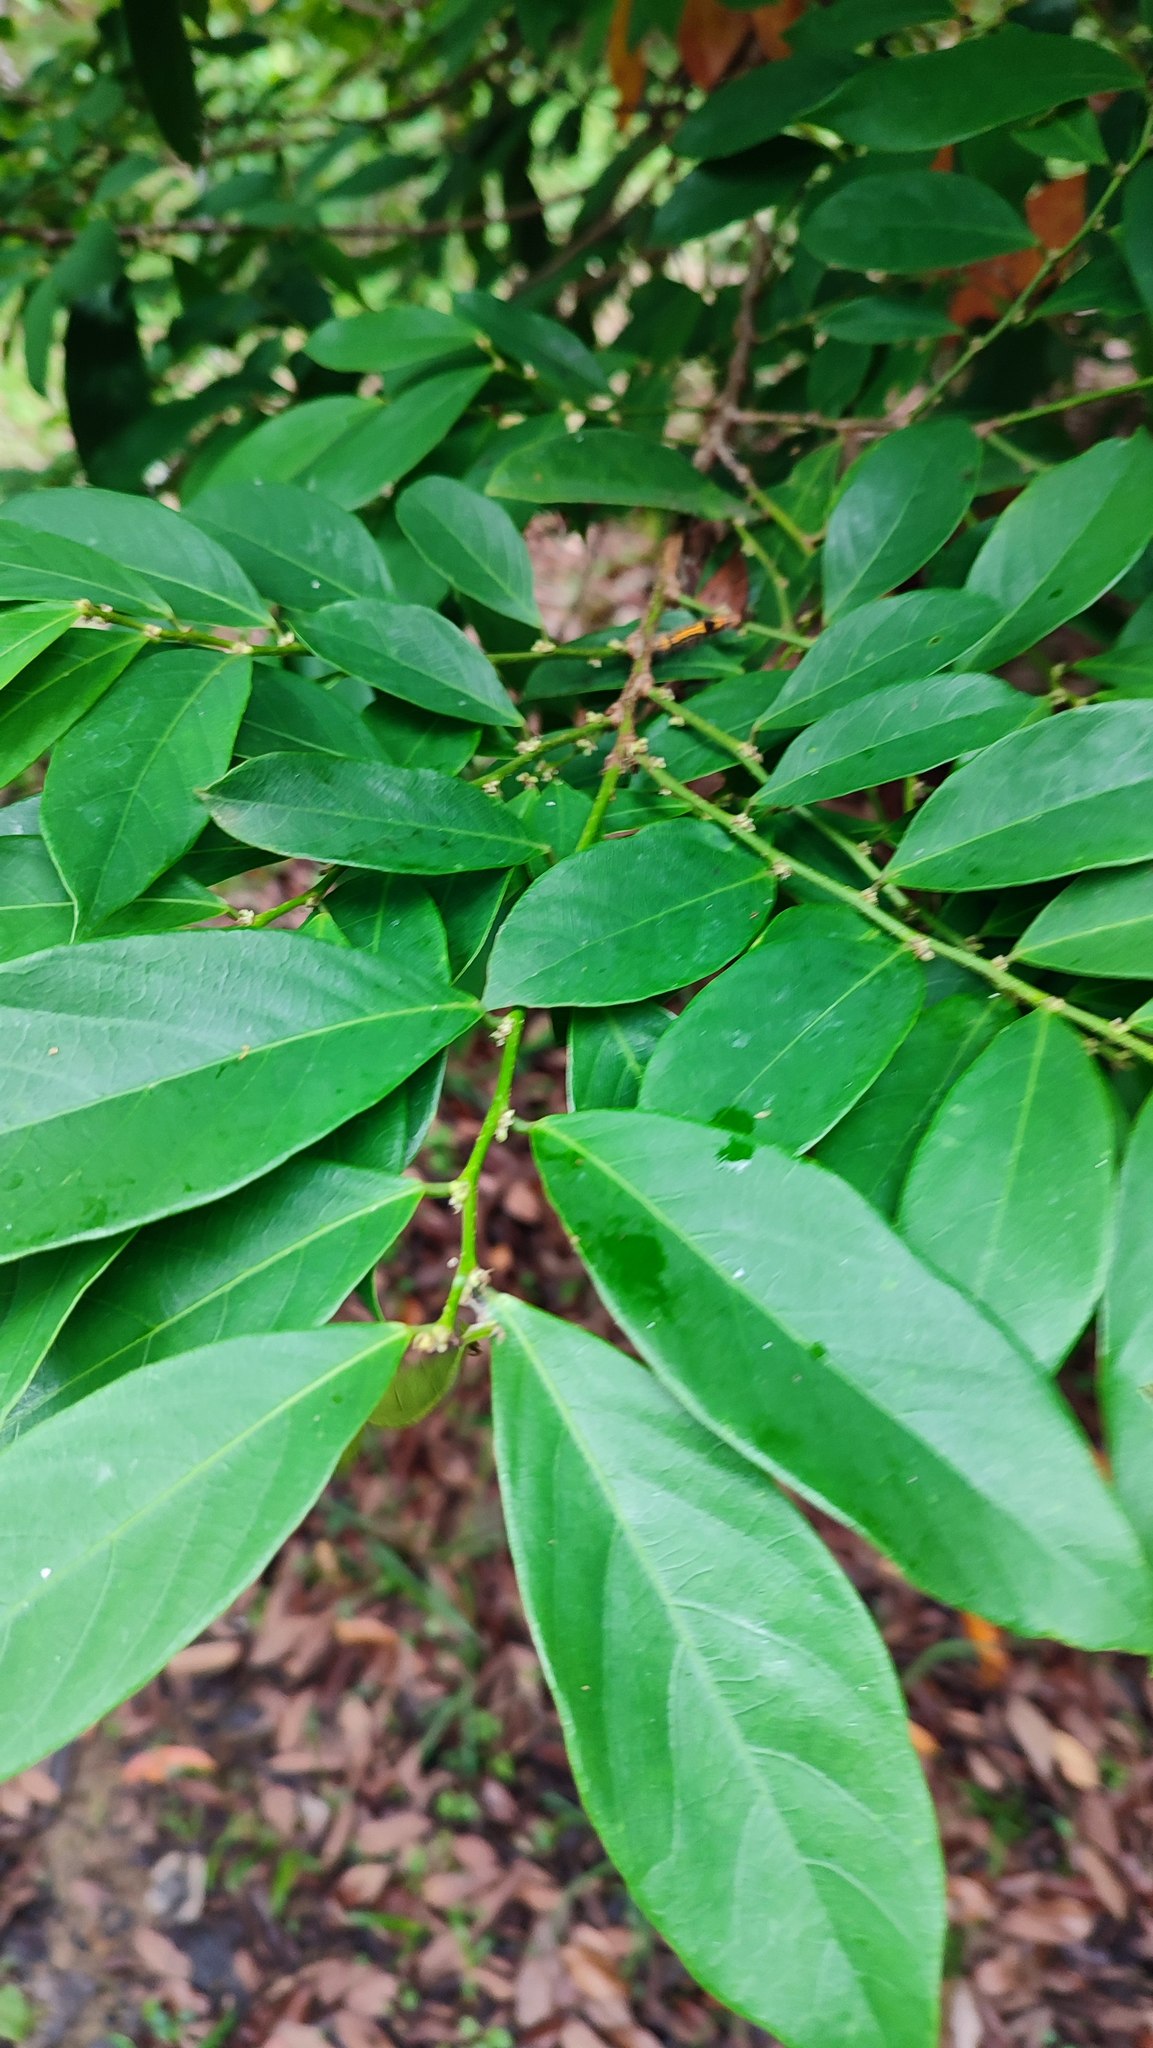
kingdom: Plantae
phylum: Tracheophyta
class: Magnoliopsida
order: Malpighiales
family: Phyllanthaceae
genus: Bridelia
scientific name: Bridelia balansae
